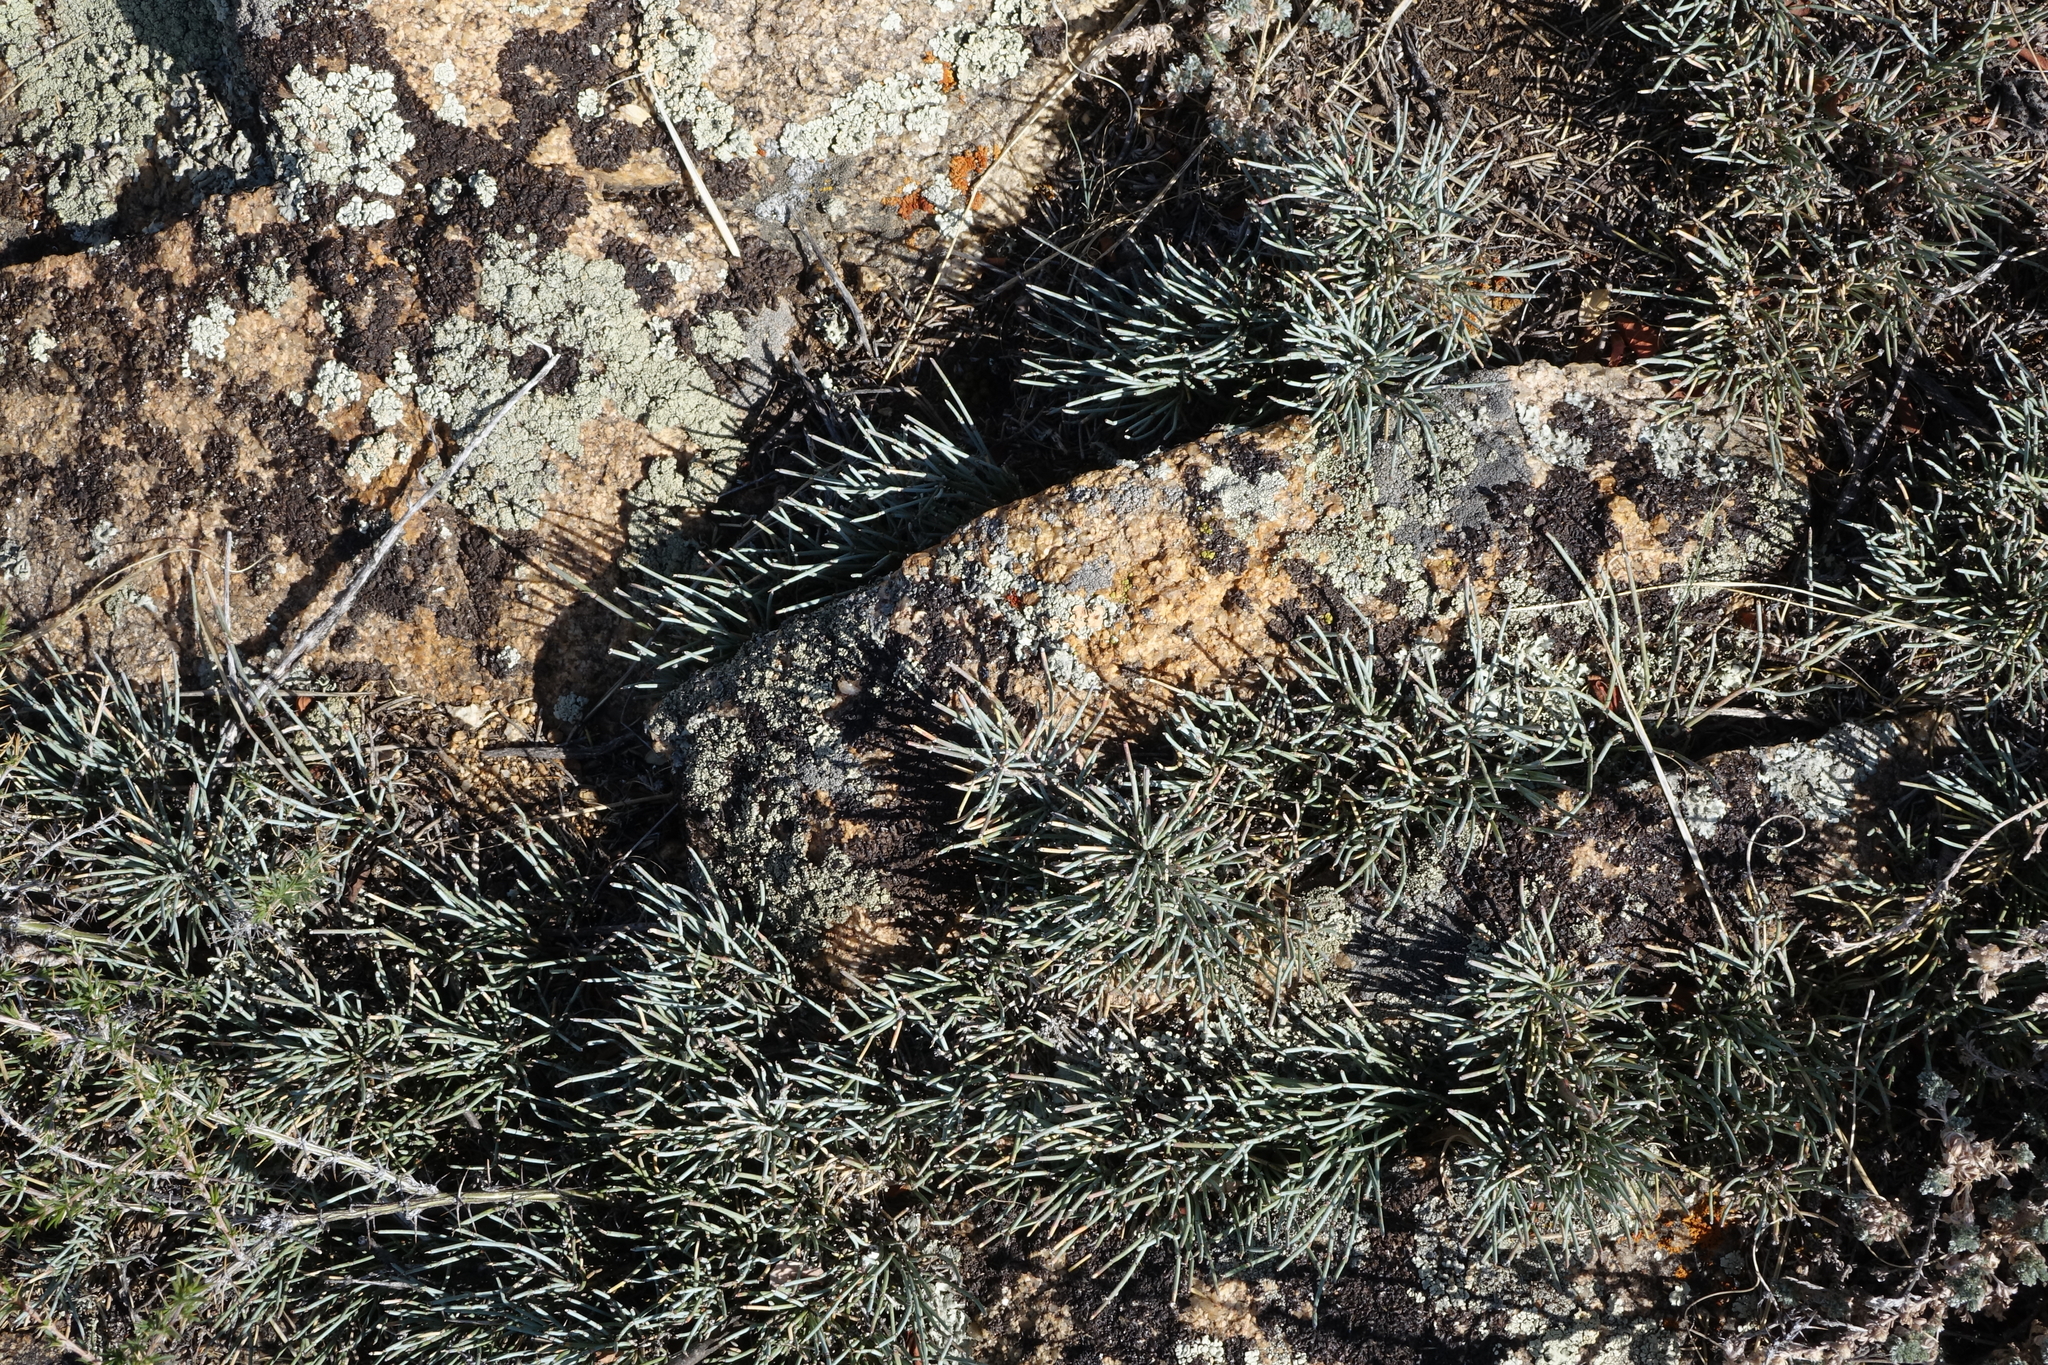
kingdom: Plantae
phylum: Tracheophyta
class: Gnetopsida
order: Ephedrales
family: Ephedraceae
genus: Ephedra
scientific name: Ephedra monosperma
